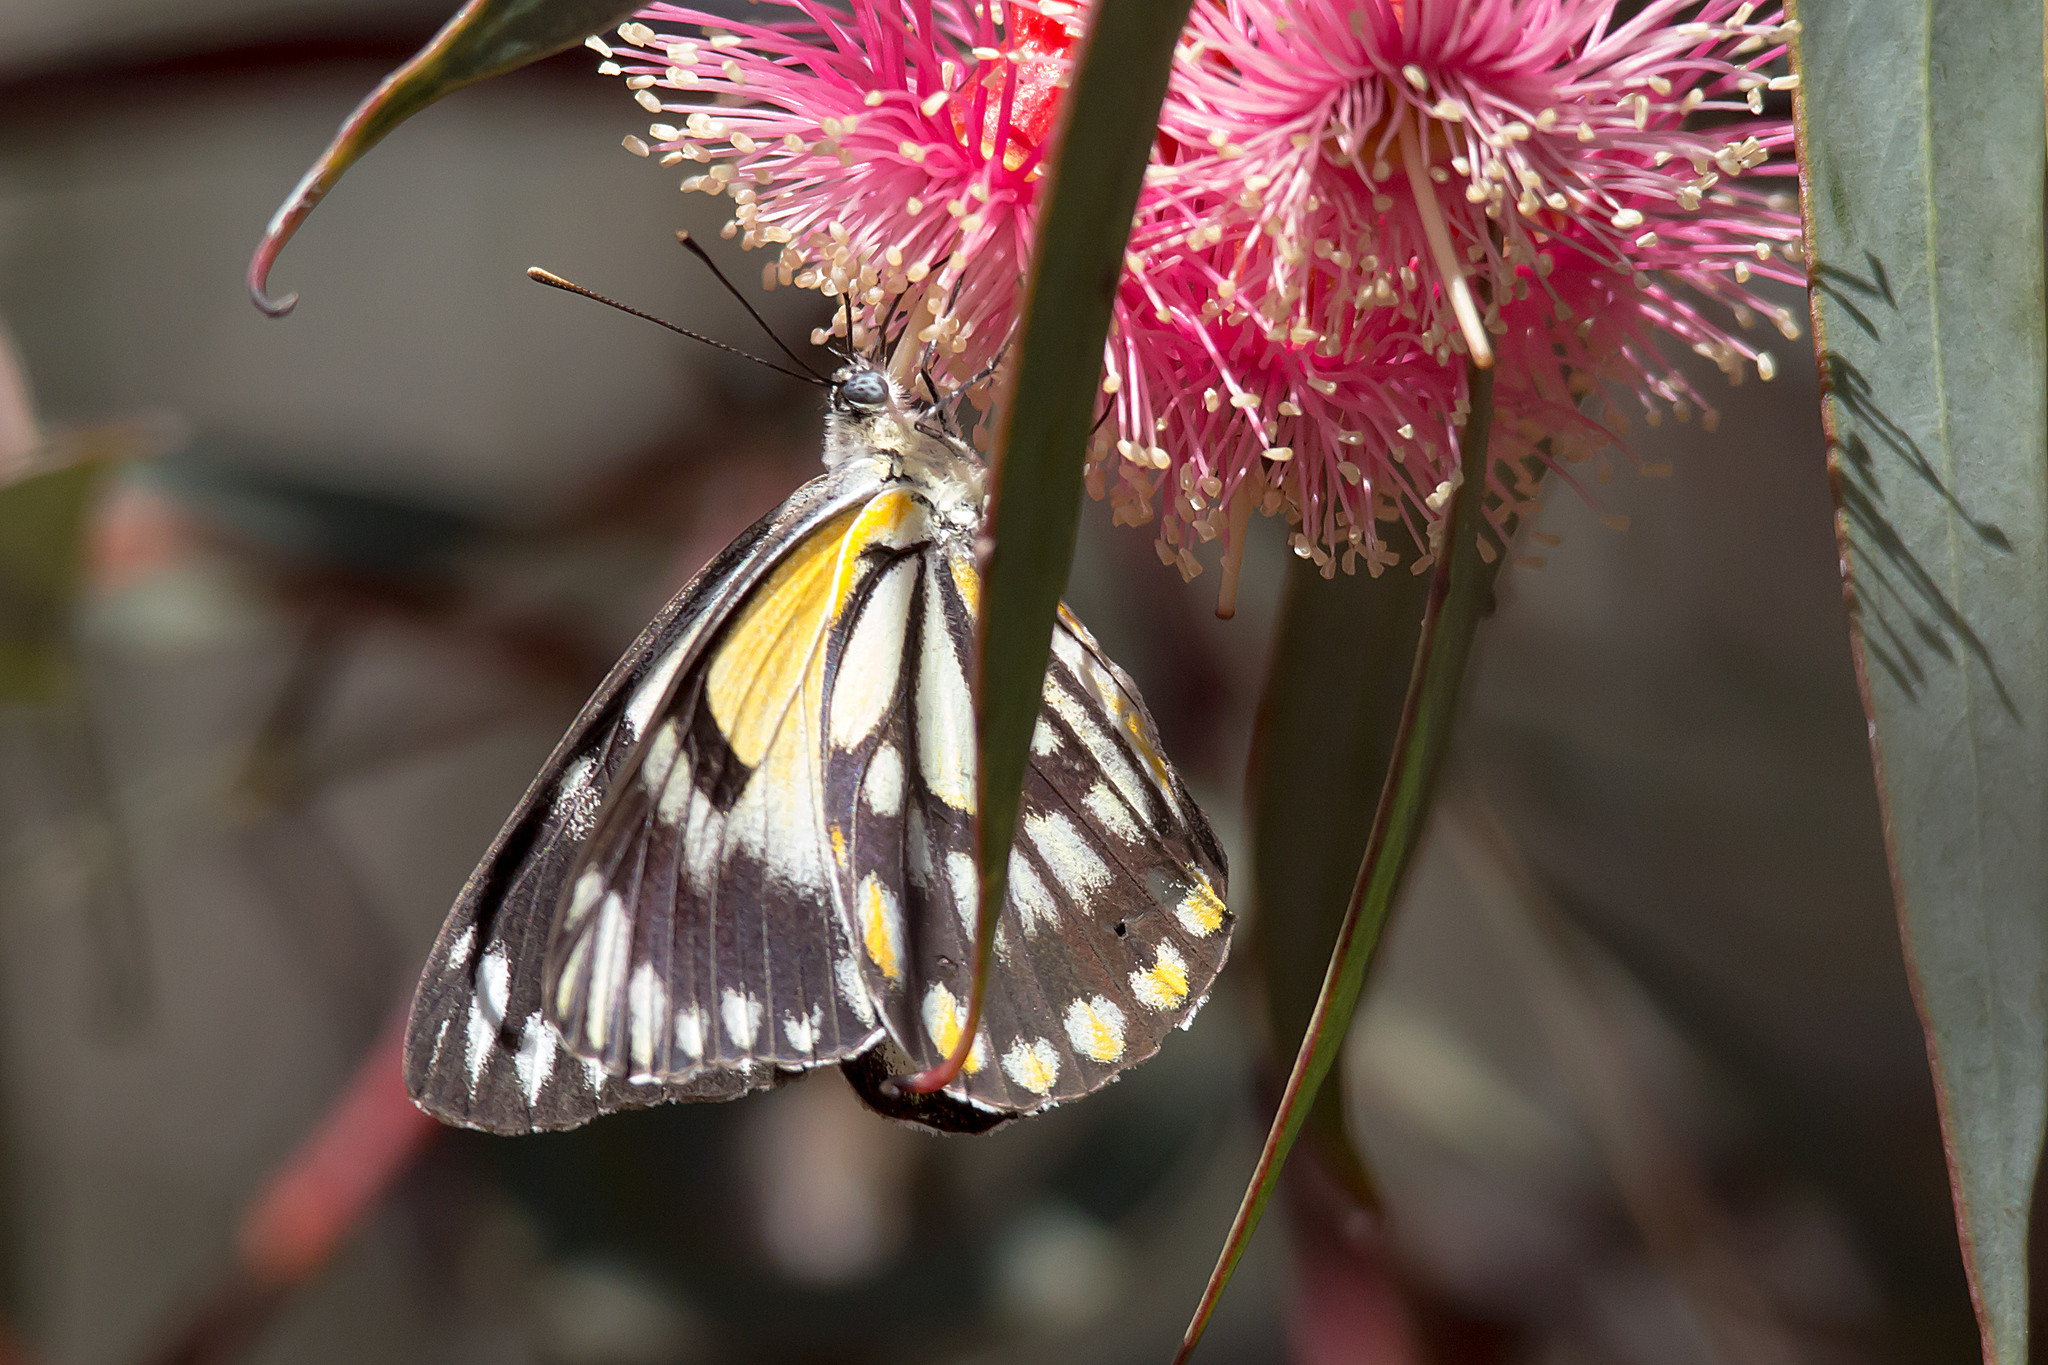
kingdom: Animalia
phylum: Arthropoda
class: Insecta
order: Lepidoptera
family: Pieridae
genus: Belenois
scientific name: Belenois java
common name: Caper white
